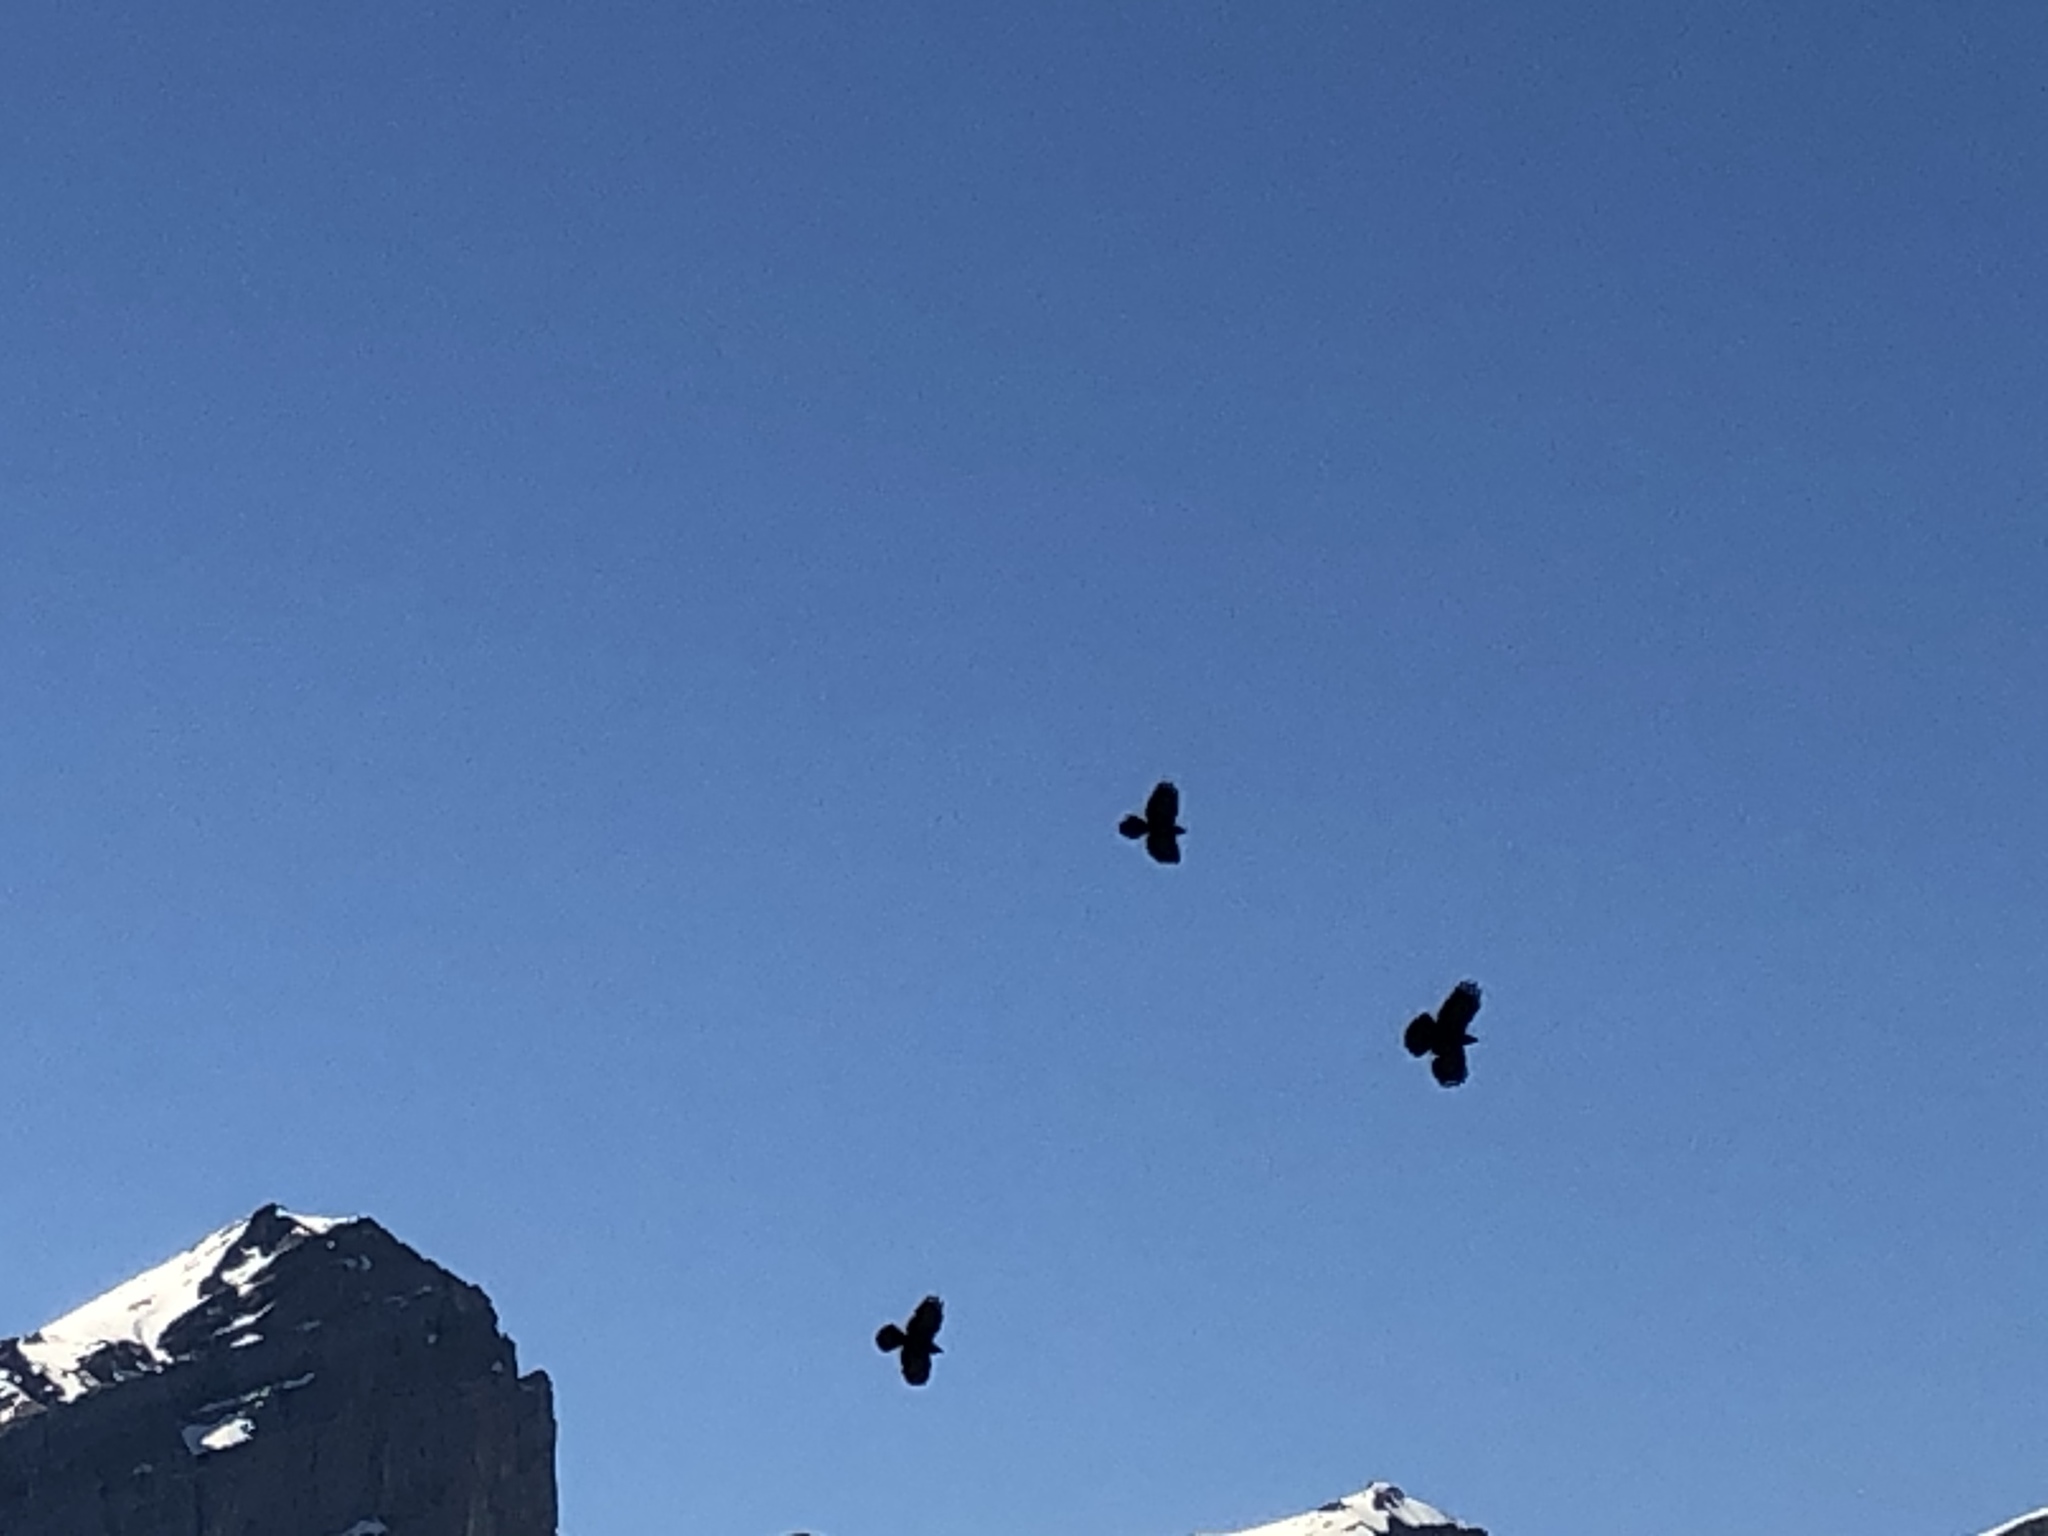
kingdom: Animalia
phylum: Chordata
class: Aves
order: Passeriformes
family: Corvidae
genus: Pyrrhocorax
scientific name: Pyrrhocorax graculus
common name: Alpine chough
